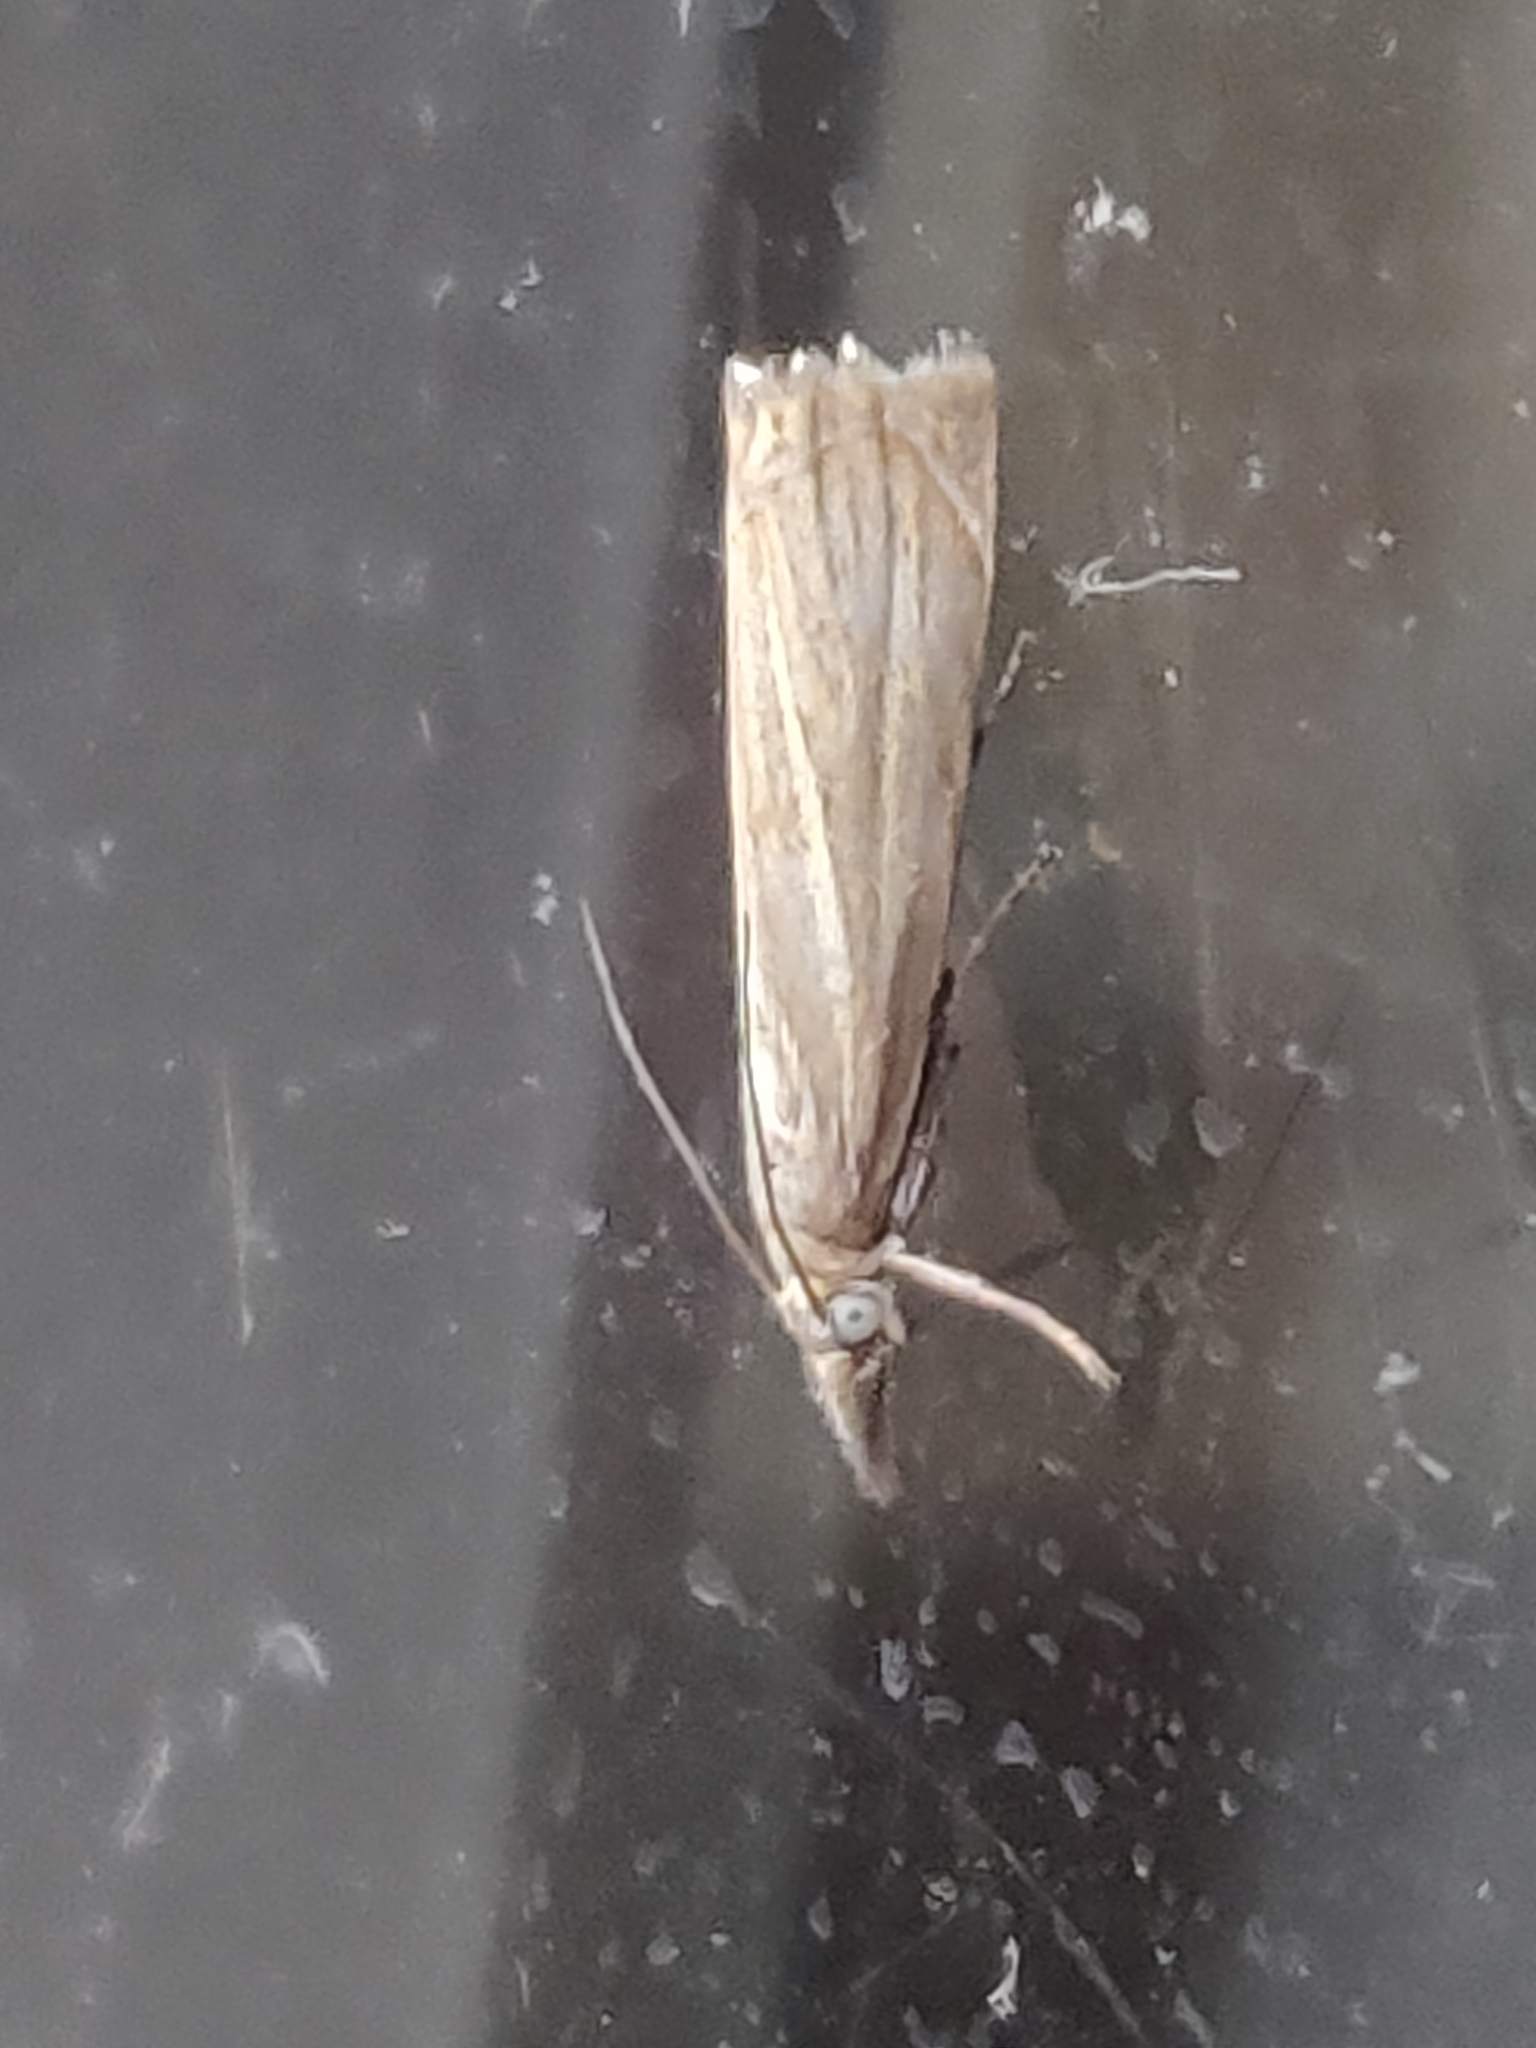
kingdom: Animalia
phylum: Arthropoda
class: Insecta
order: Lepidoptera
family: Crambidae
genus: Chrysoteuchia
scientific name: Chrysoteuchia culmella
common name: Garden grass-veneer
